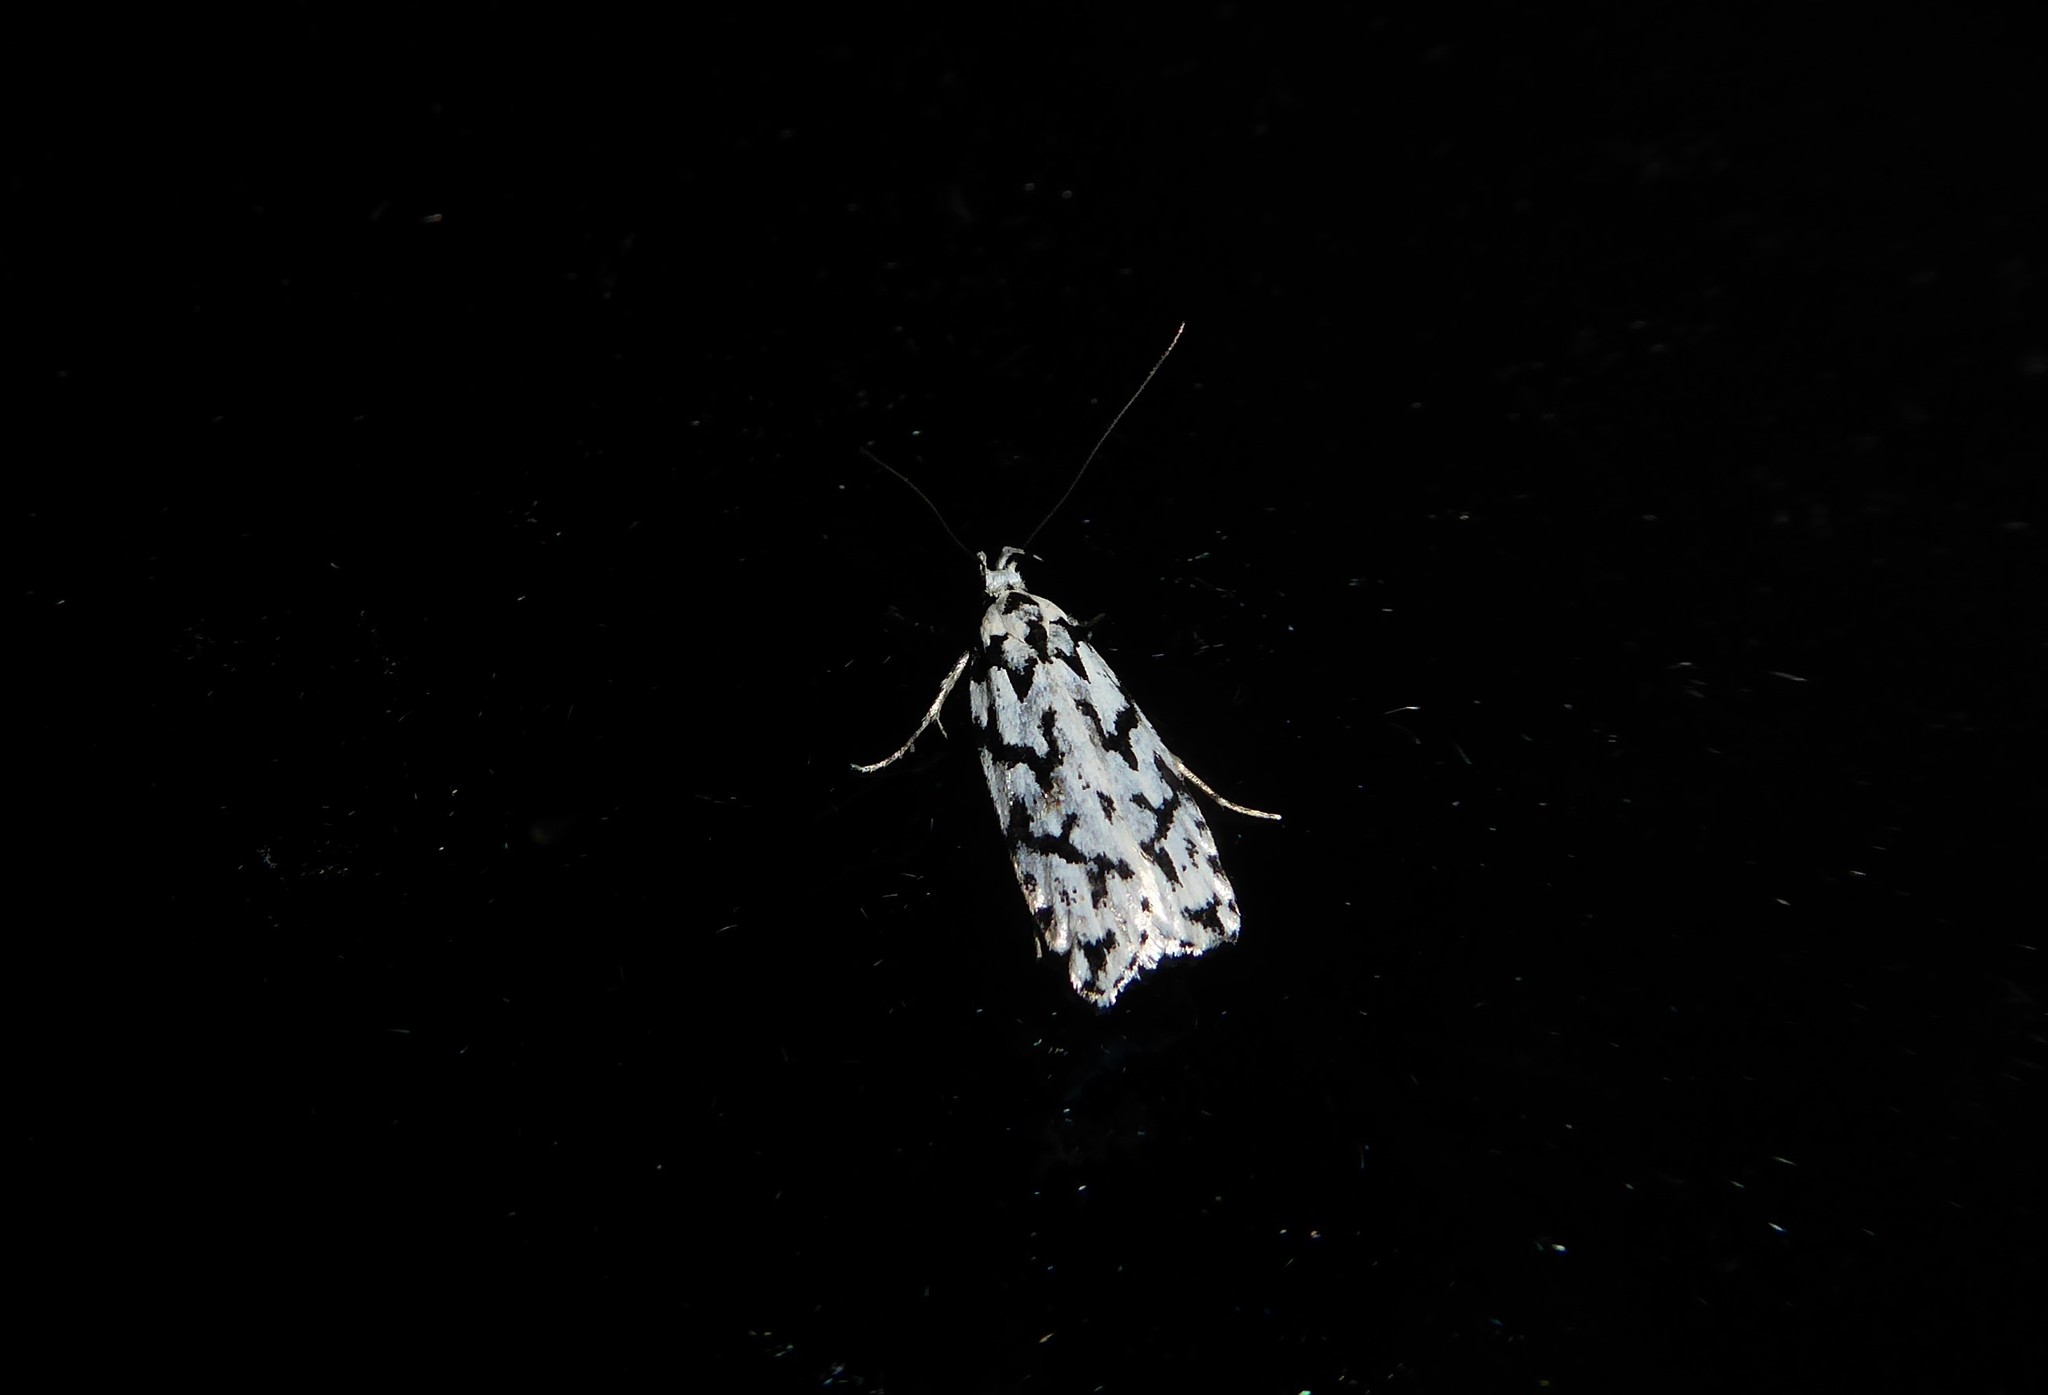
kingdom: Animalia
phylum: Arthropoda
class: Insecta
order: Lepidoptera
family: Oecophoridae
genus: Izatha
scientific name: Izatha katadiktya
